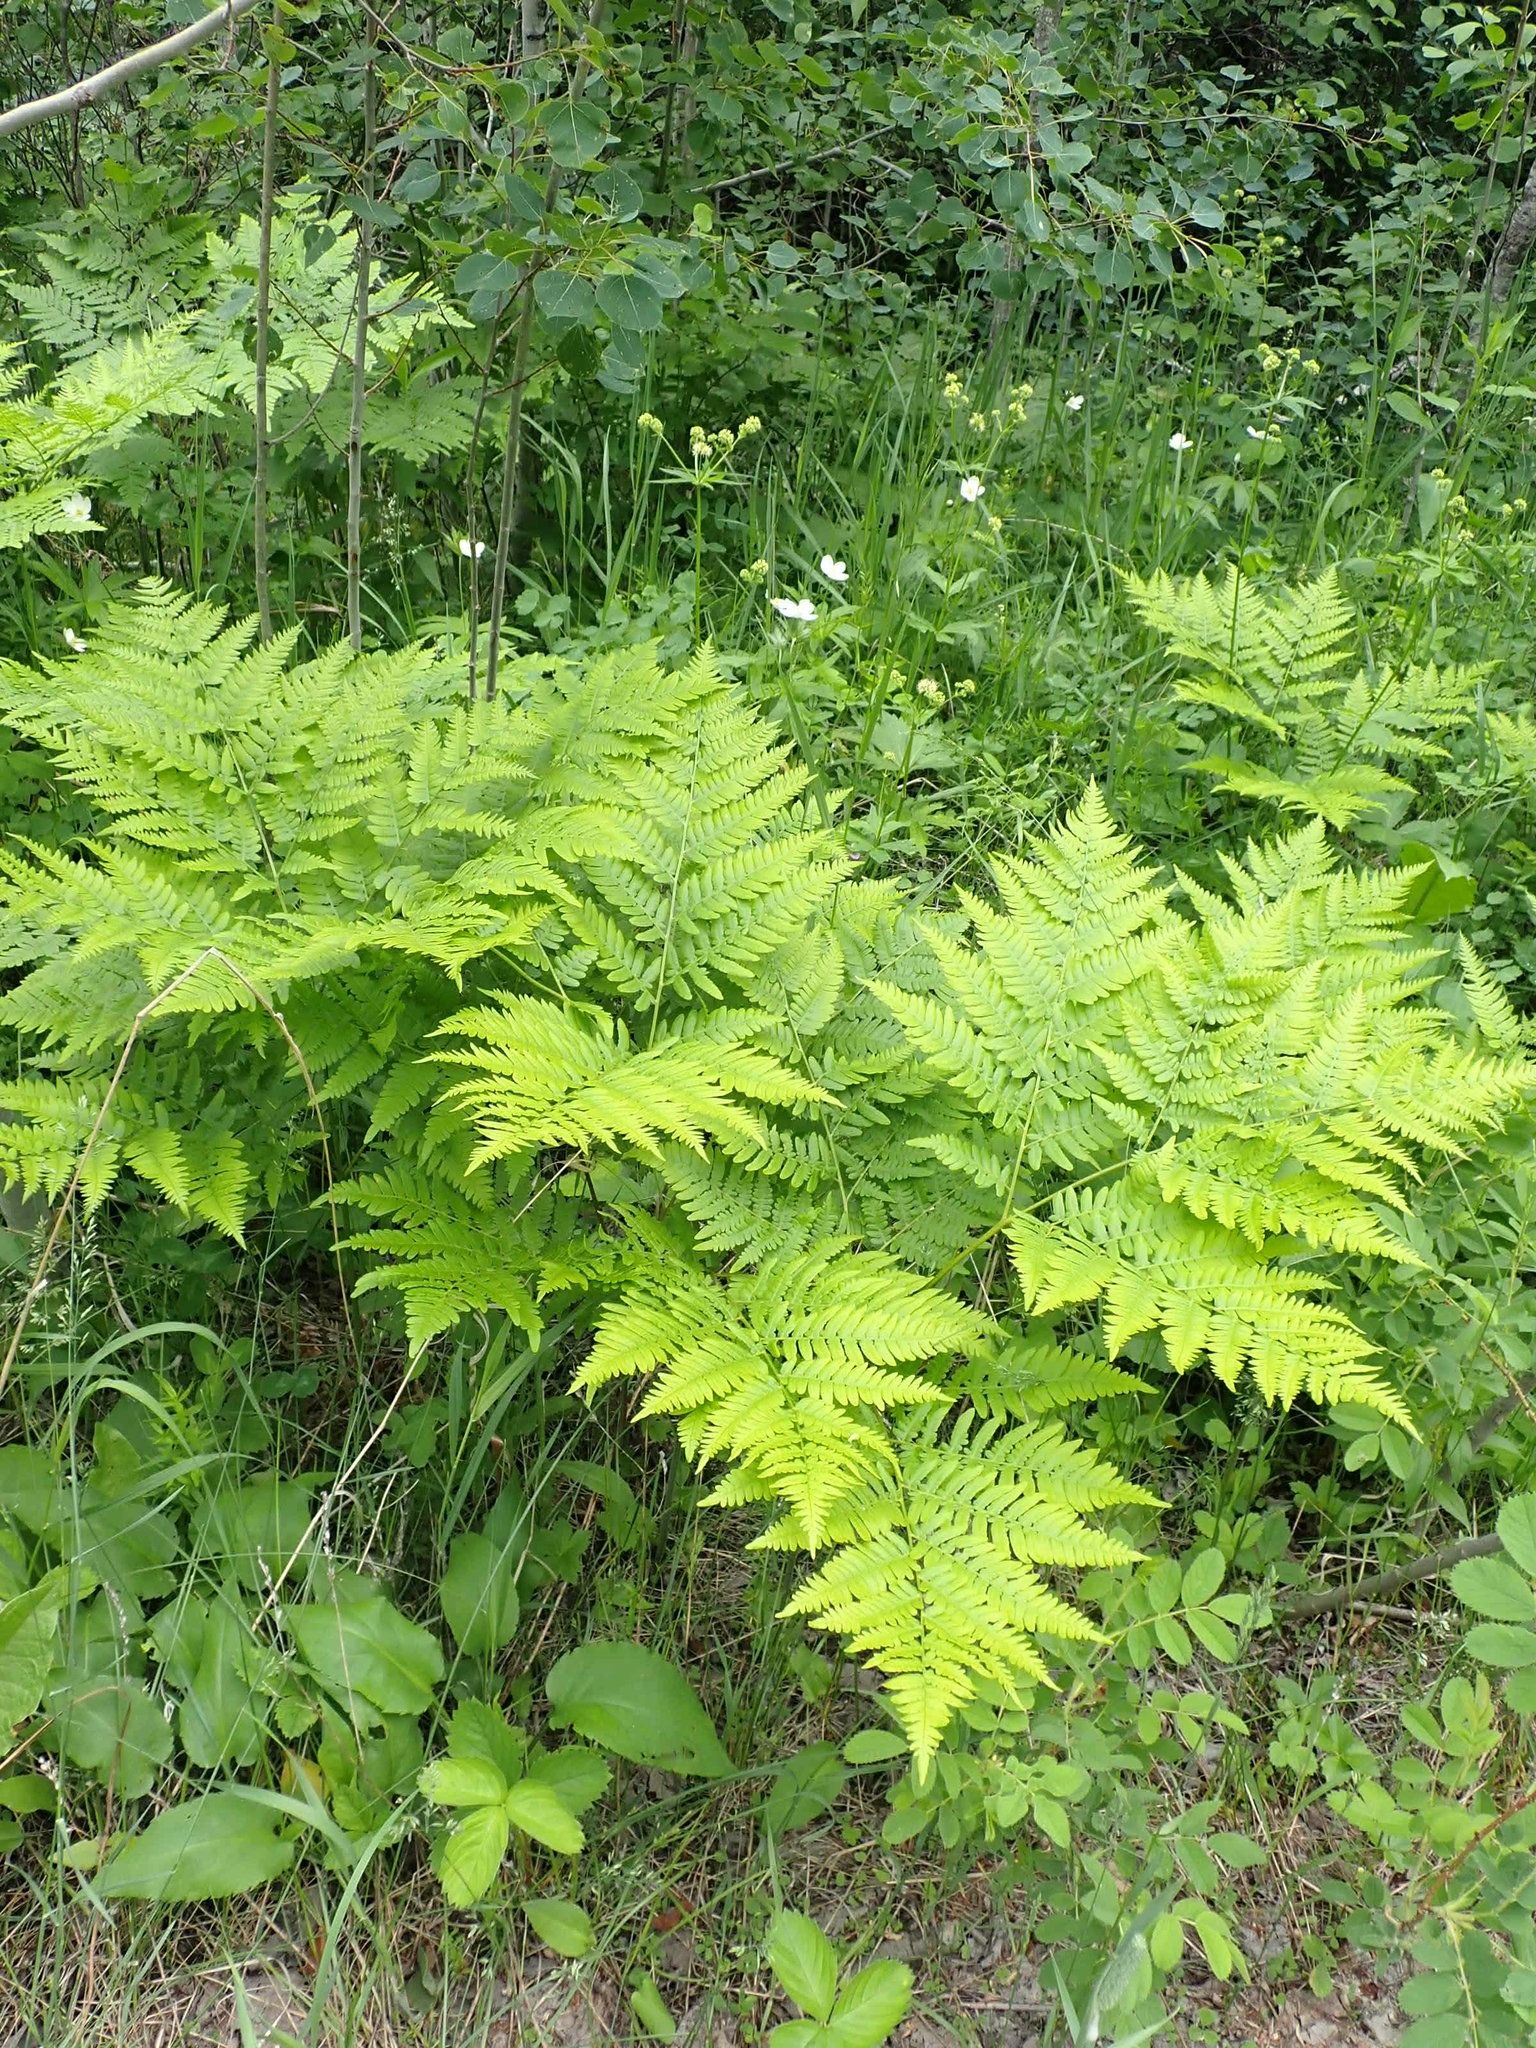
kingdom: Plantae
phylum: Tracheophyta
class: Polypodiopsida
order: Polypodiales
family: Dennstaedtiaceae
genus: Pteridium
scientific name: Pteridium aquilinum
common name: Bracken
